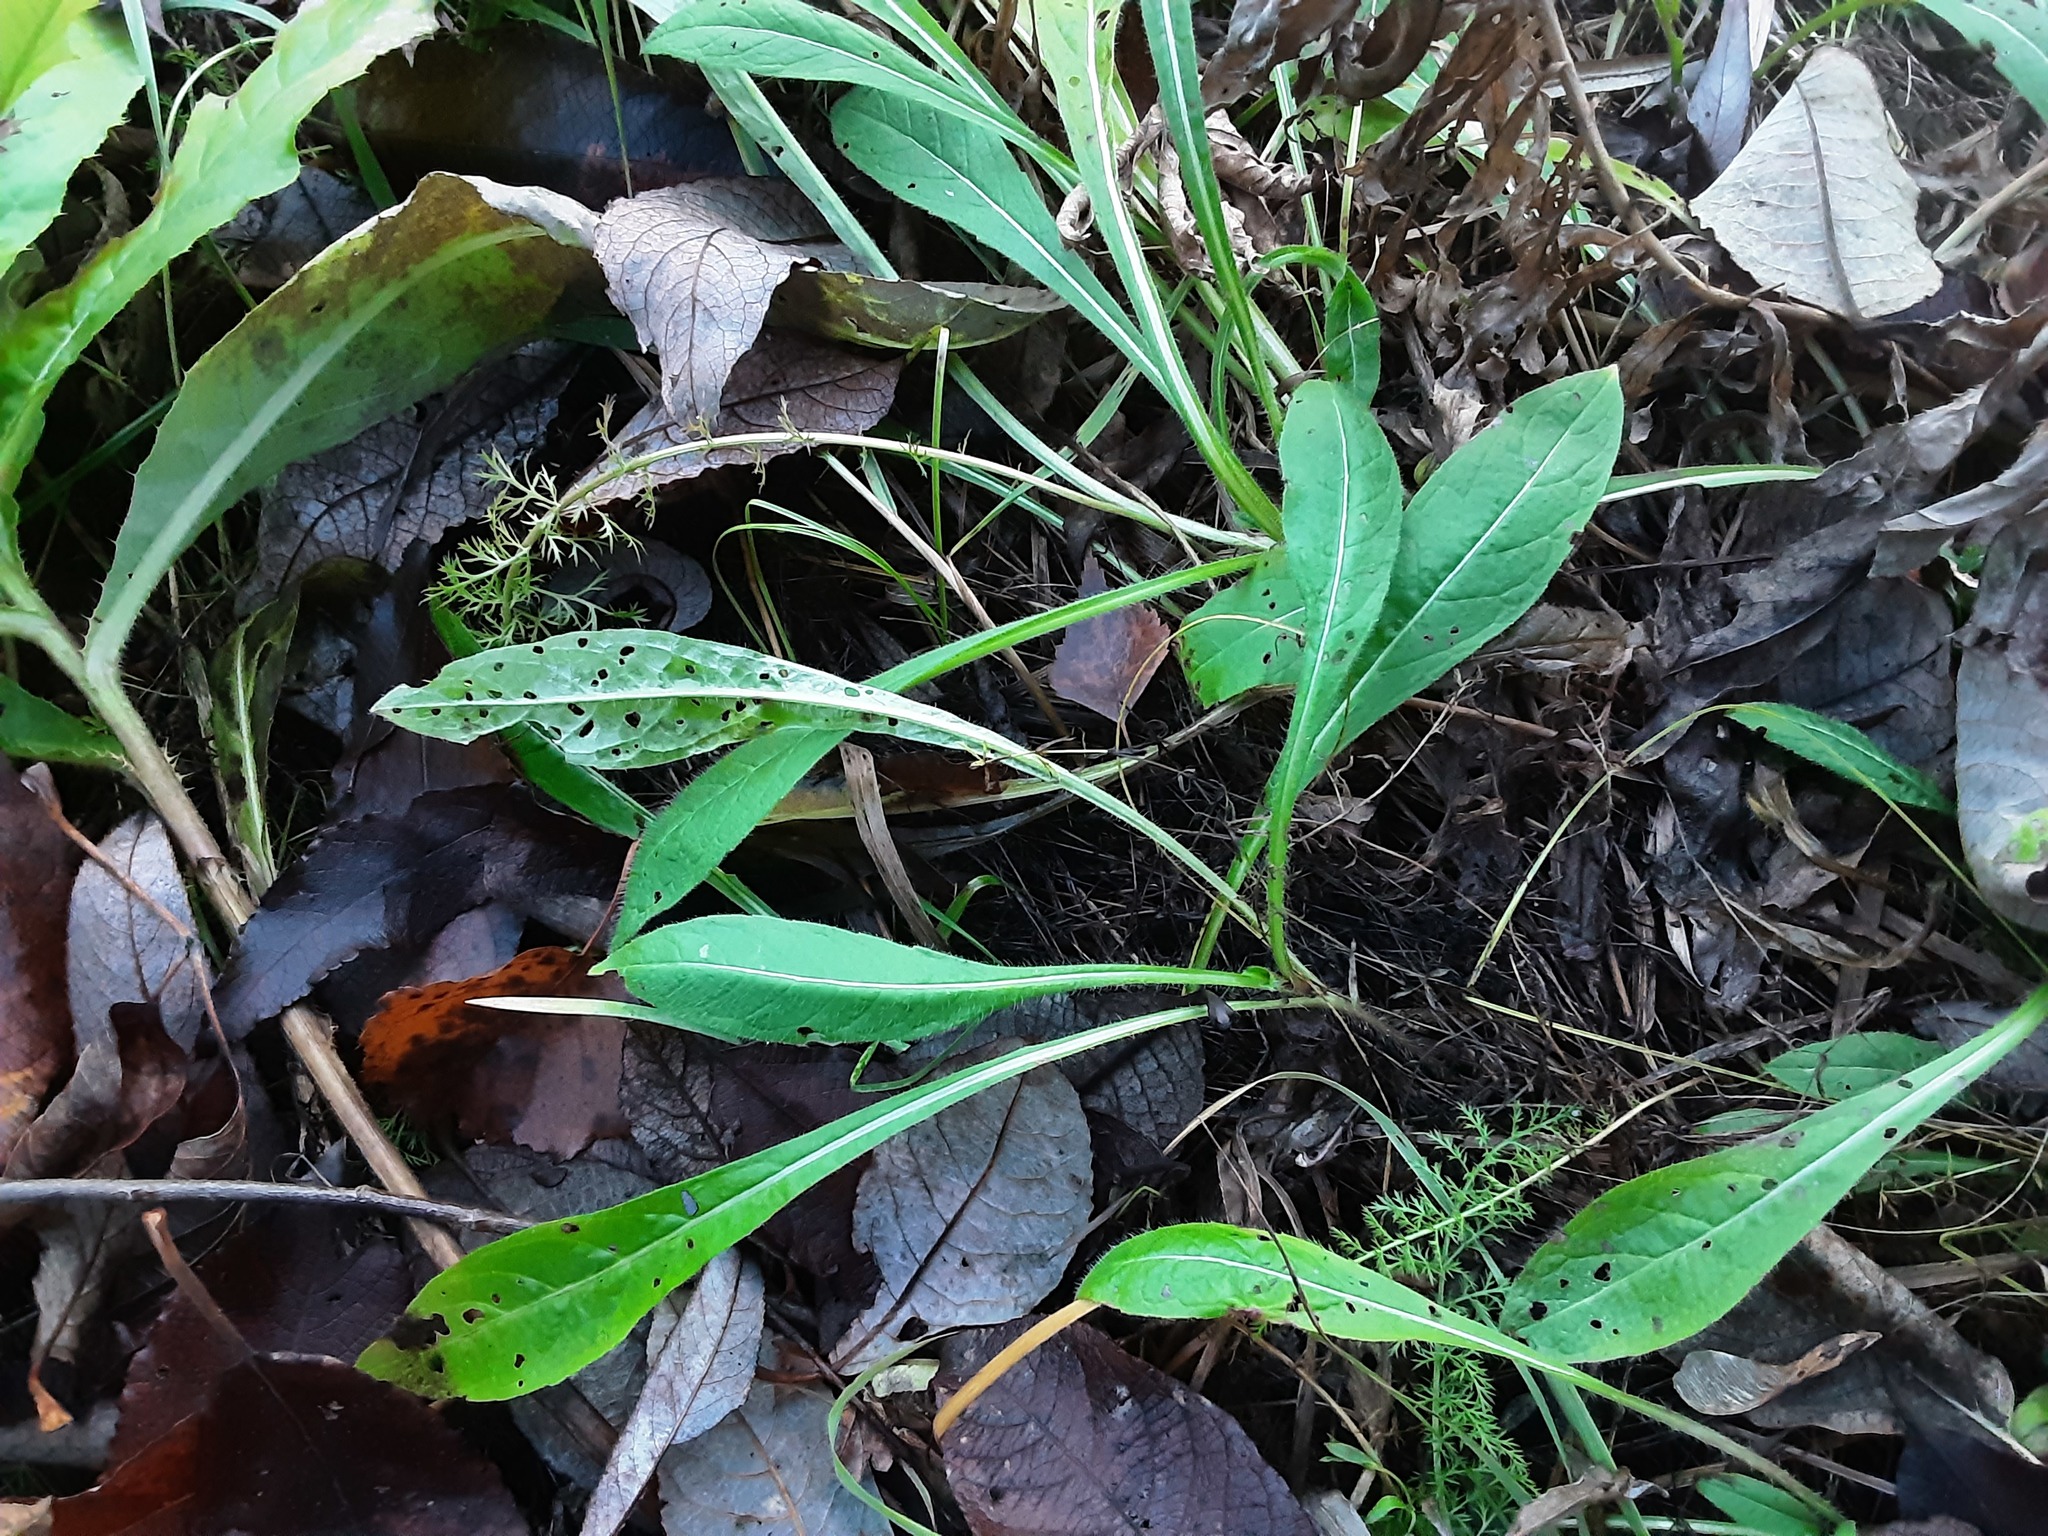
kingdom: Plantae
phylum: Tracheophyta
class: Magnoliopsida
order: Dipsacales
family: Caprifoliaceae
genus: Knautia
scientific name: Knautia arvensis
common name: Field scabiosa
